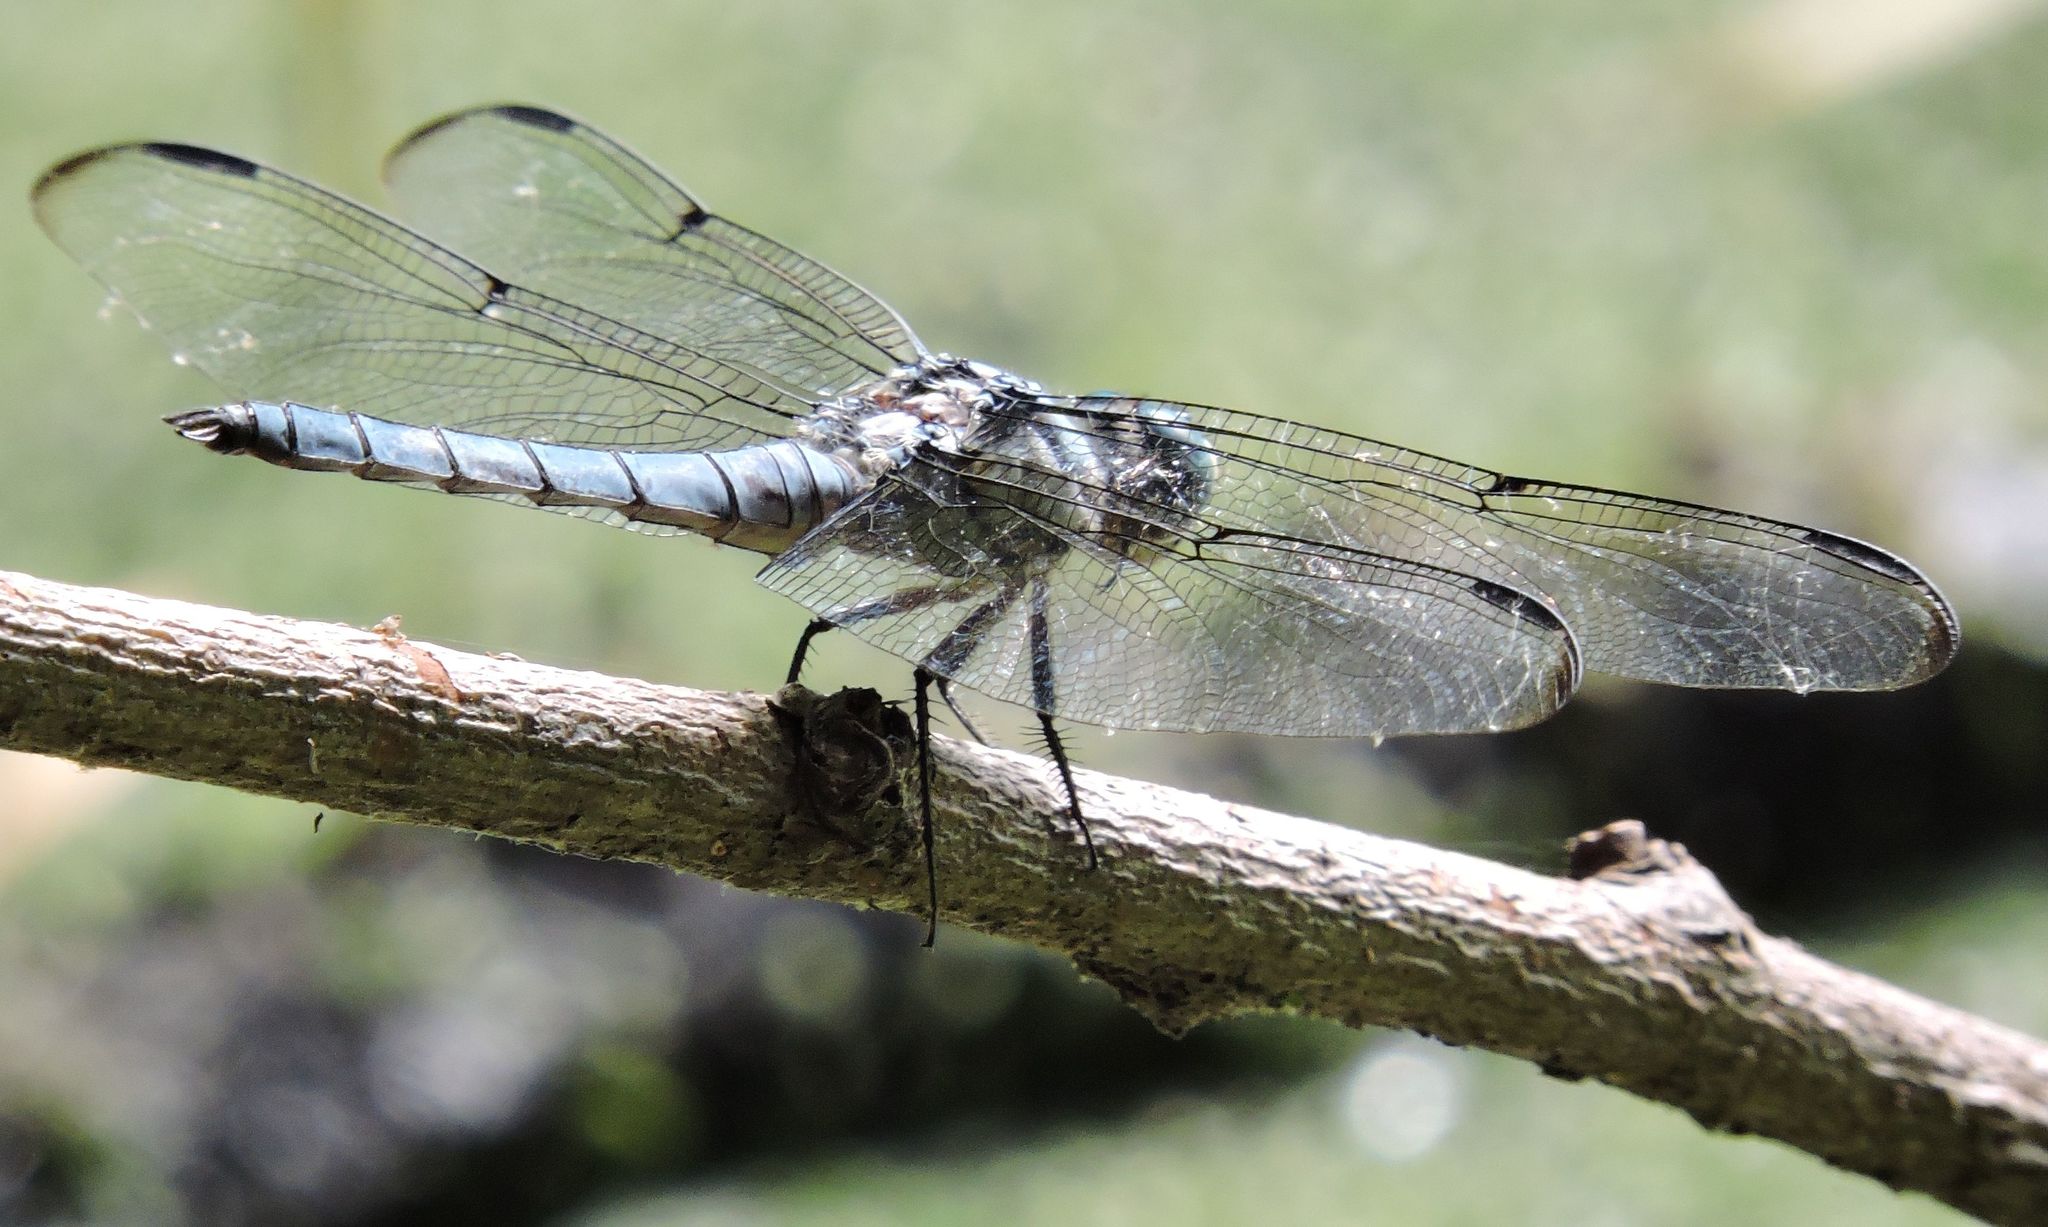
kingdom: Animalia
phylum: Arthropoda
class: Insecta
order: Odonata
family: Libellulidae
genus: Libellula
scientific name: Libellula vibrans
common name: Great blue skimmer
